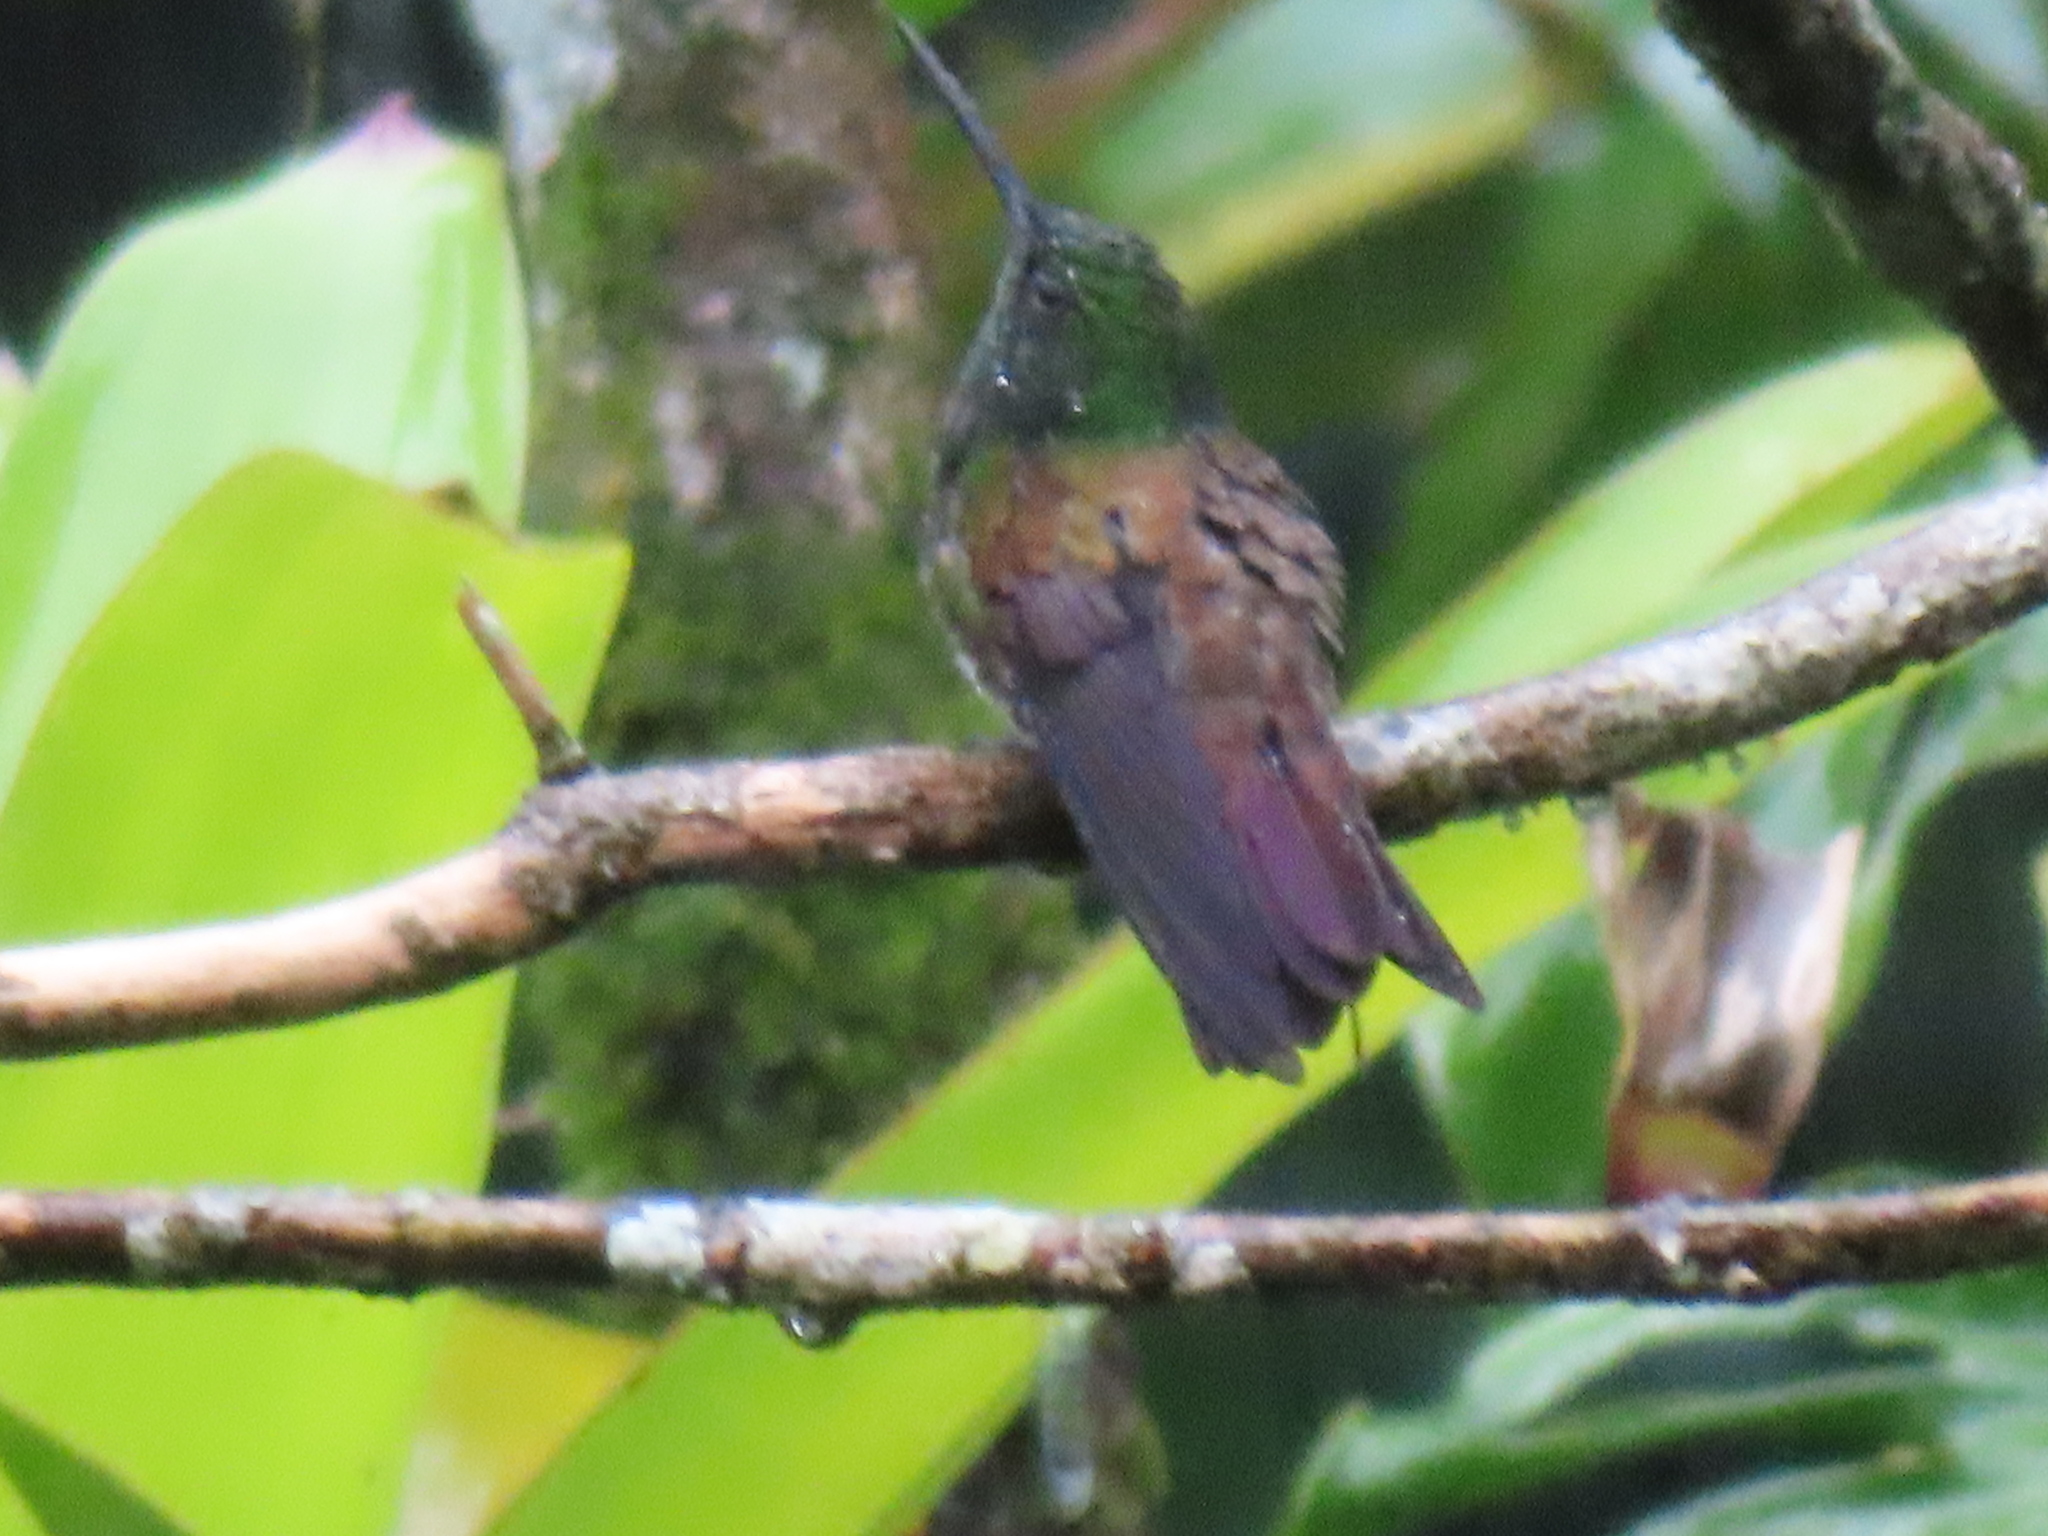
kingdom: Animalia
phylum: Chordata
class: Aves
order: Apodiformes
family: Trochilidae
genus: Saucerottia
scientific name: Saucerottia edward
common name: Snowy-bellied hummingbird
